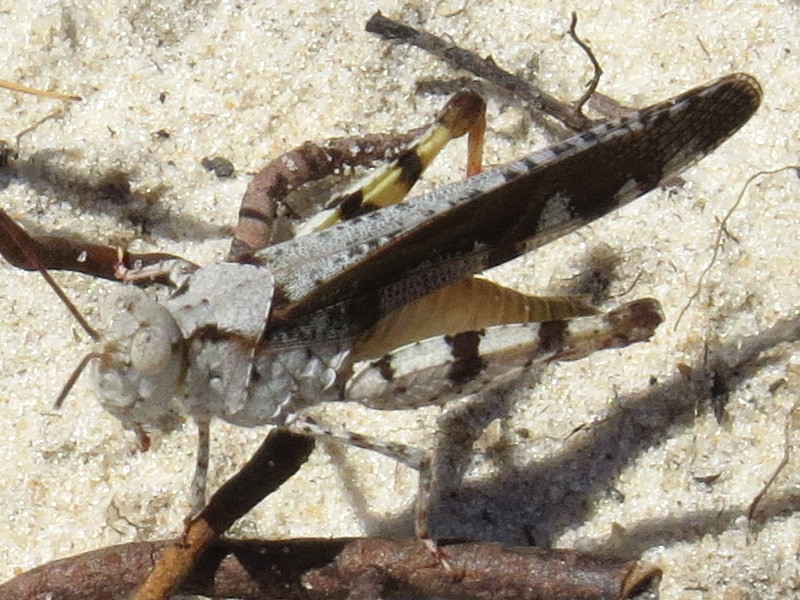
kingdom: Animalia
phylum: Arthropoda
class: Insecta
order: Orthoptera
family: Acrididae
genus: Spharagemon
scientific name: Spharagemon marmoratum
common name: Marbled grasshopper
